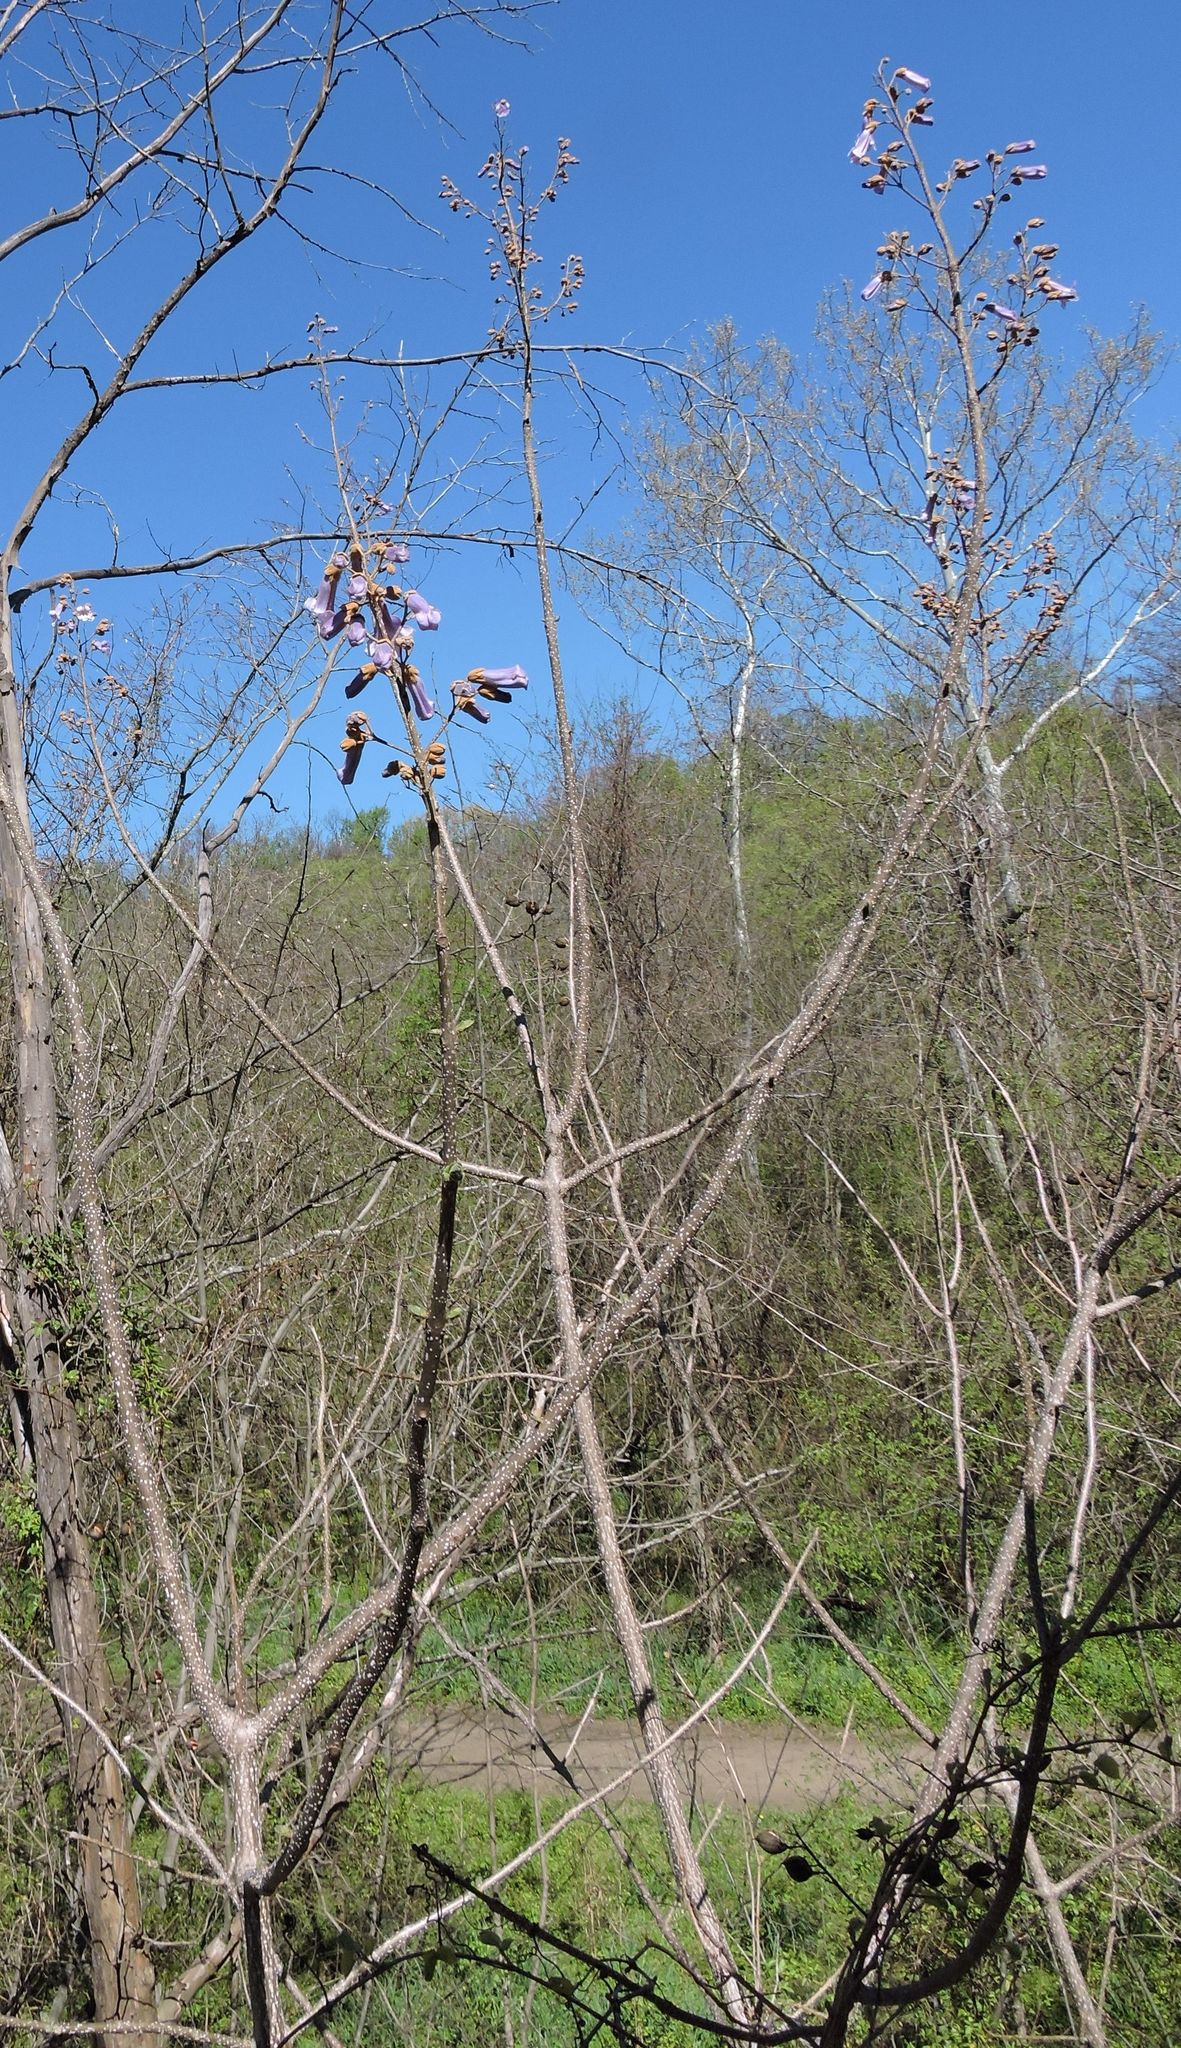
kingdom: Plantae
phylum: Tracheophyta
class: Magnoliopsida
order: Lamiales
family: Paulowniaceae
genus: Paulownia
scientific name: Paulownia tomentosa
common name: Foxglove-tree
